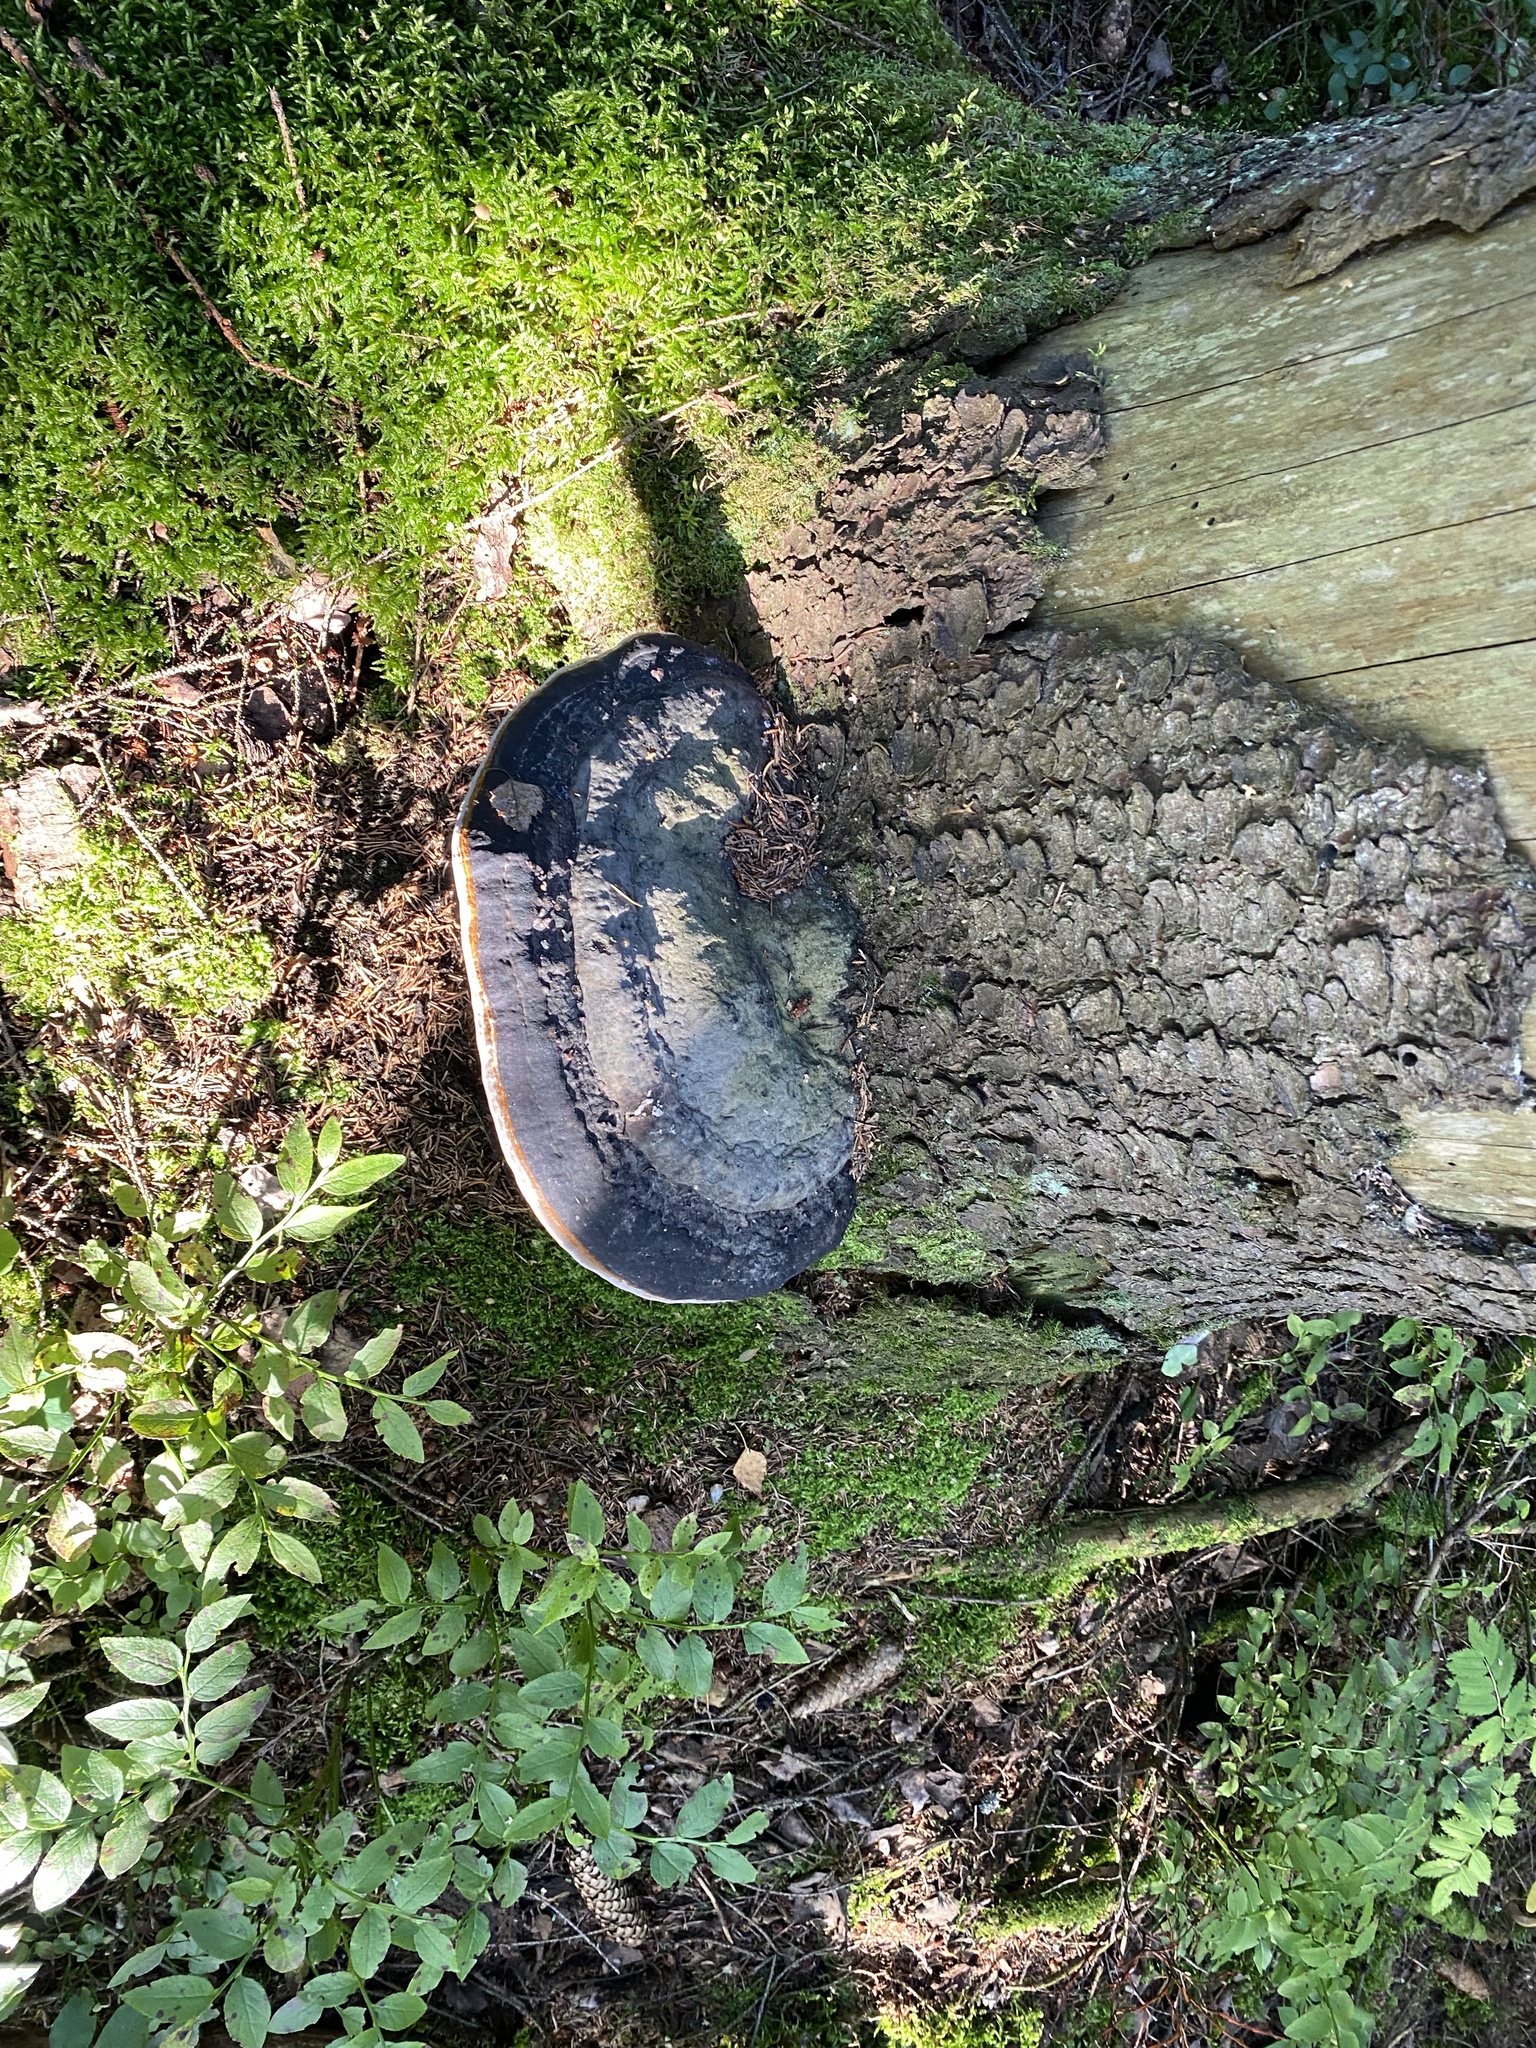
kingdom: Fungi
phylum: Basidiomycota
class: Agaricomycetes
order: Polyporales
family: Fomitopsidaceae
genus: Fomitopsis
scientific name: Fomitopsis pinicola
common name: Red-belted bracket
